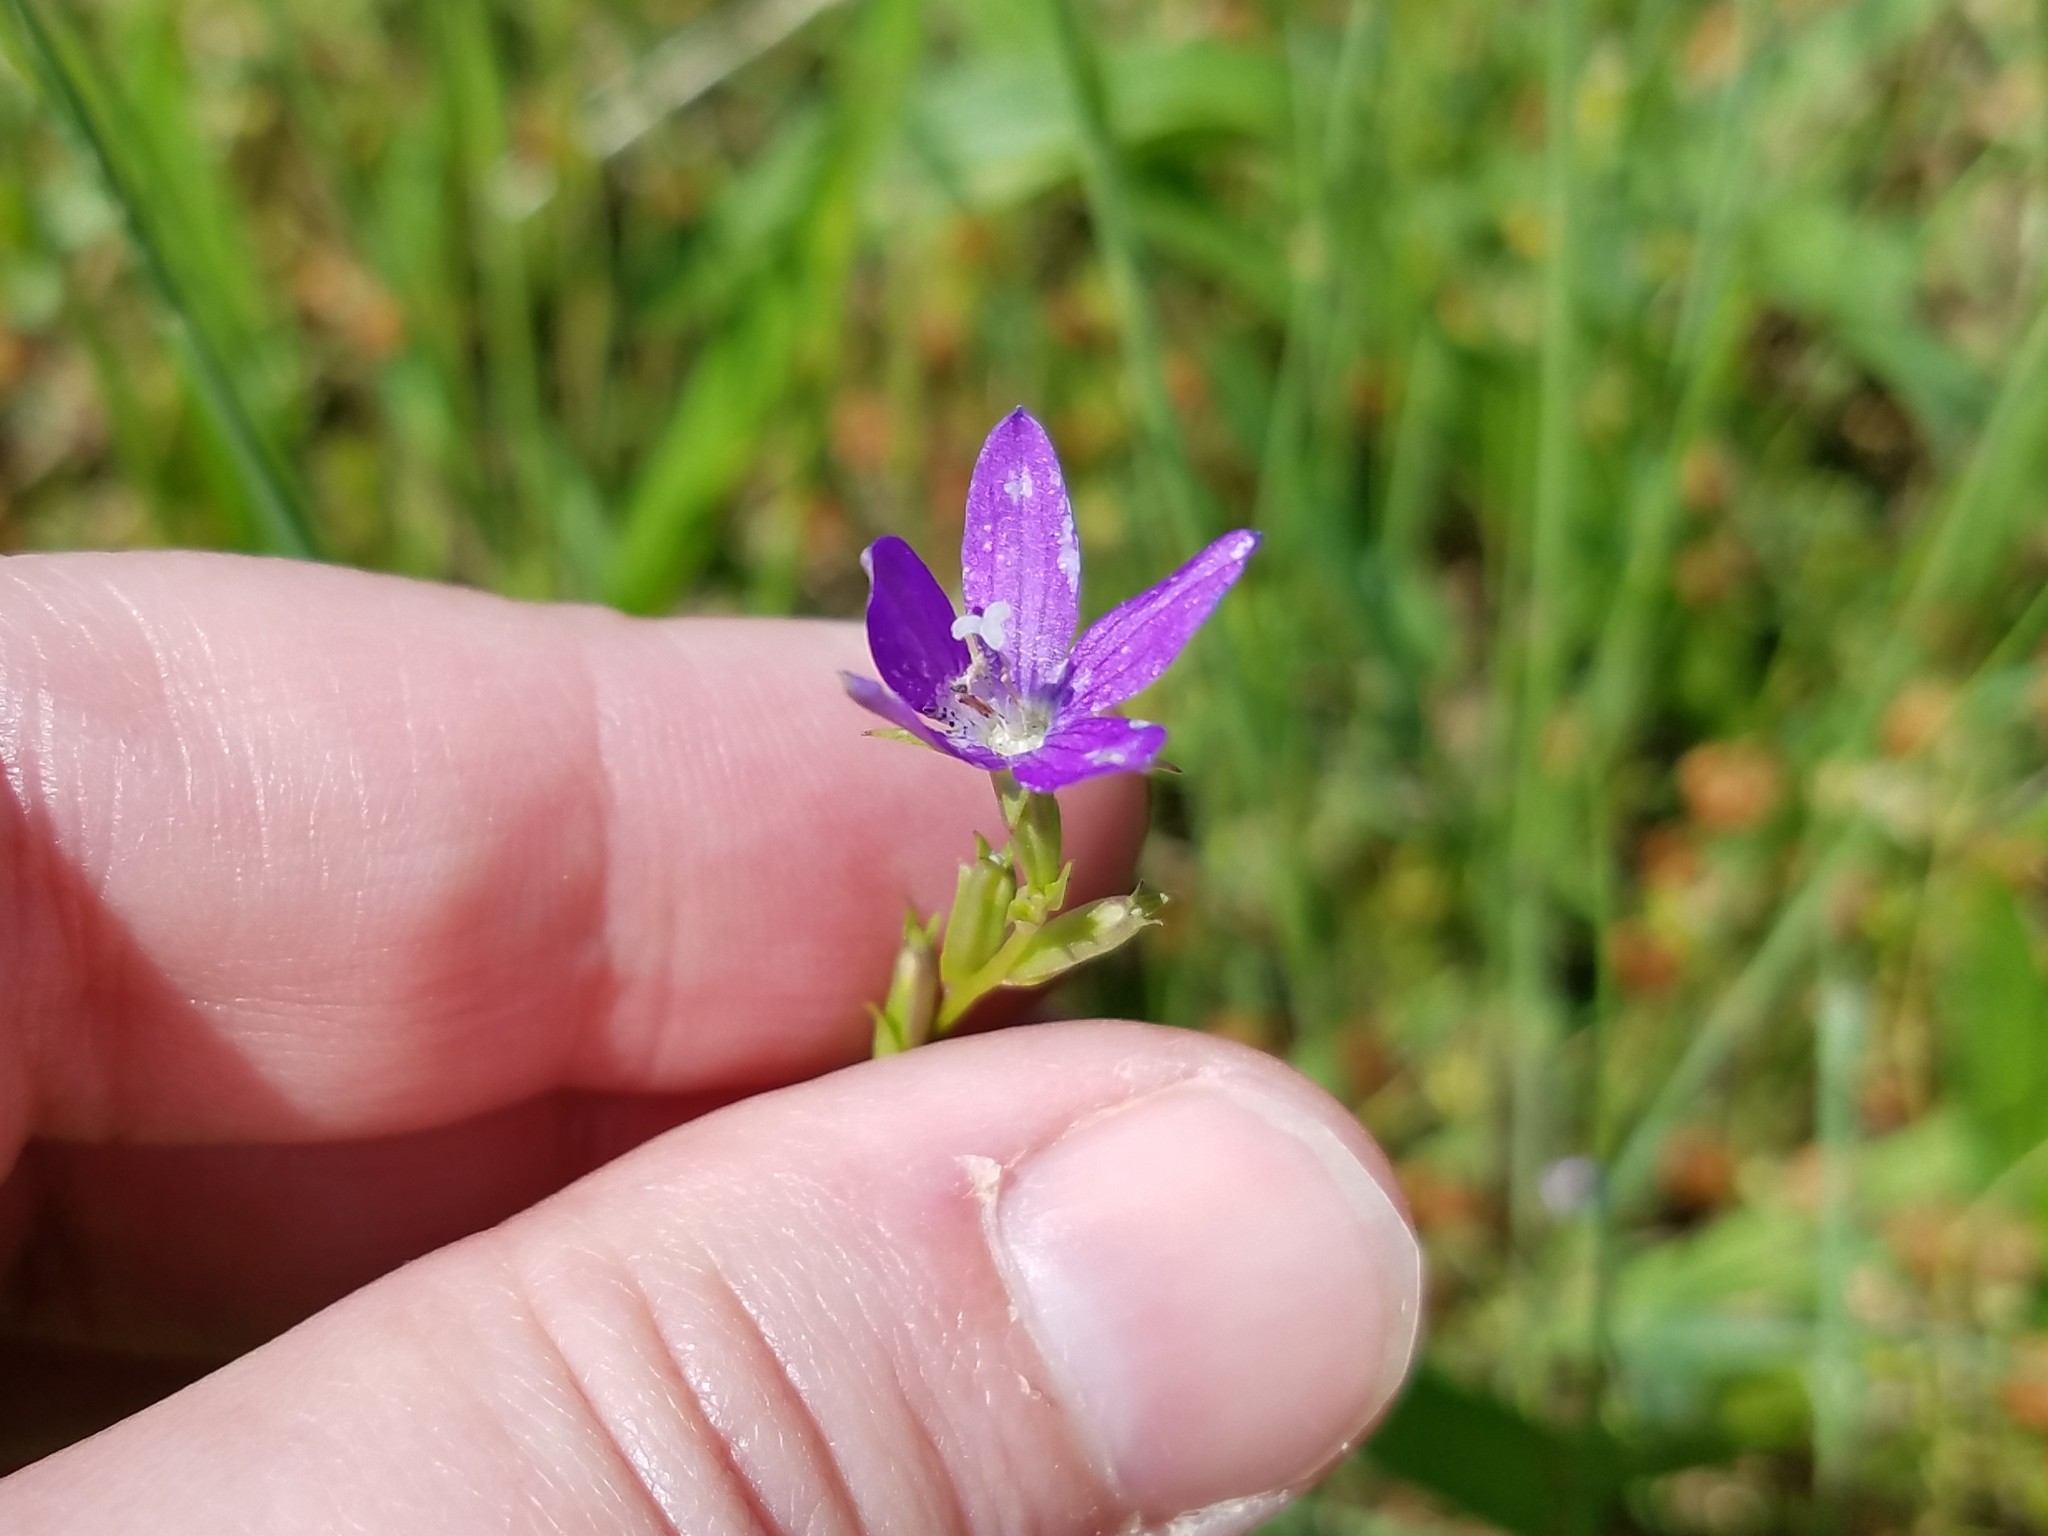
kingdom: Plantae
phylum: Tracheophyta
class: Magnoliopsida
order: Asterales
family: Campanulaceae
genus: Triodanis
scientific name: Triodanis biflora
